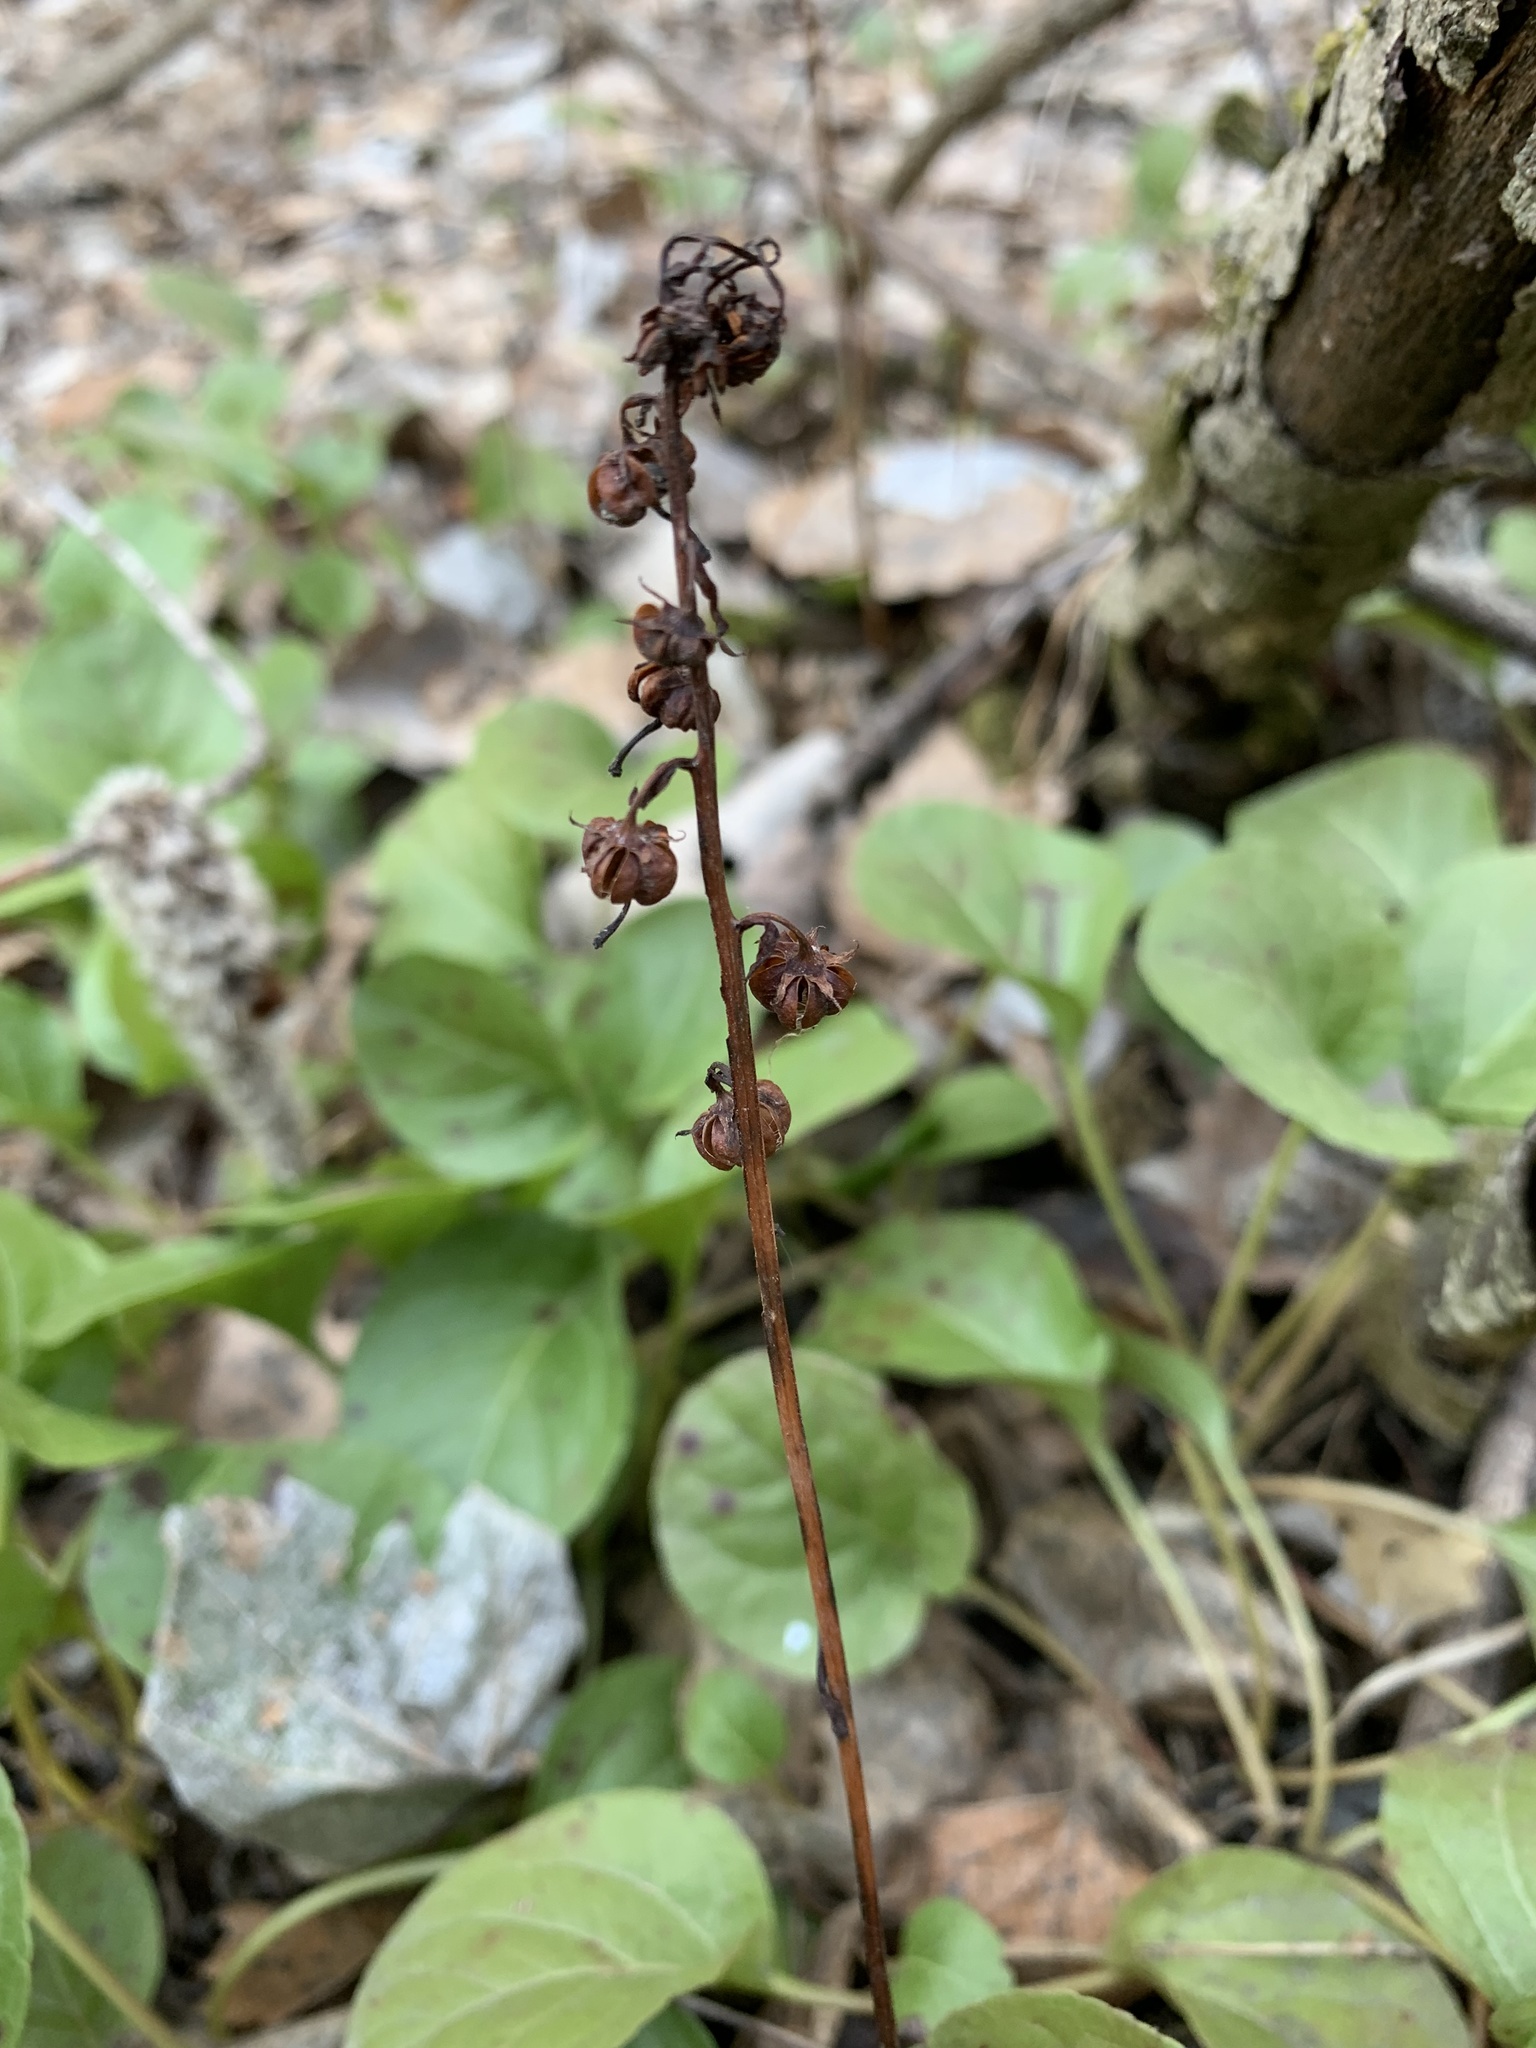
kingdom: Plantae
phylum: Tracheophyta
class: Magnoliopsida
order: Ericales
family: Ericaceae
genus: Pyrola
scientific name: Pyrola rotundifolia
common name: Round-leaved wintergreen
